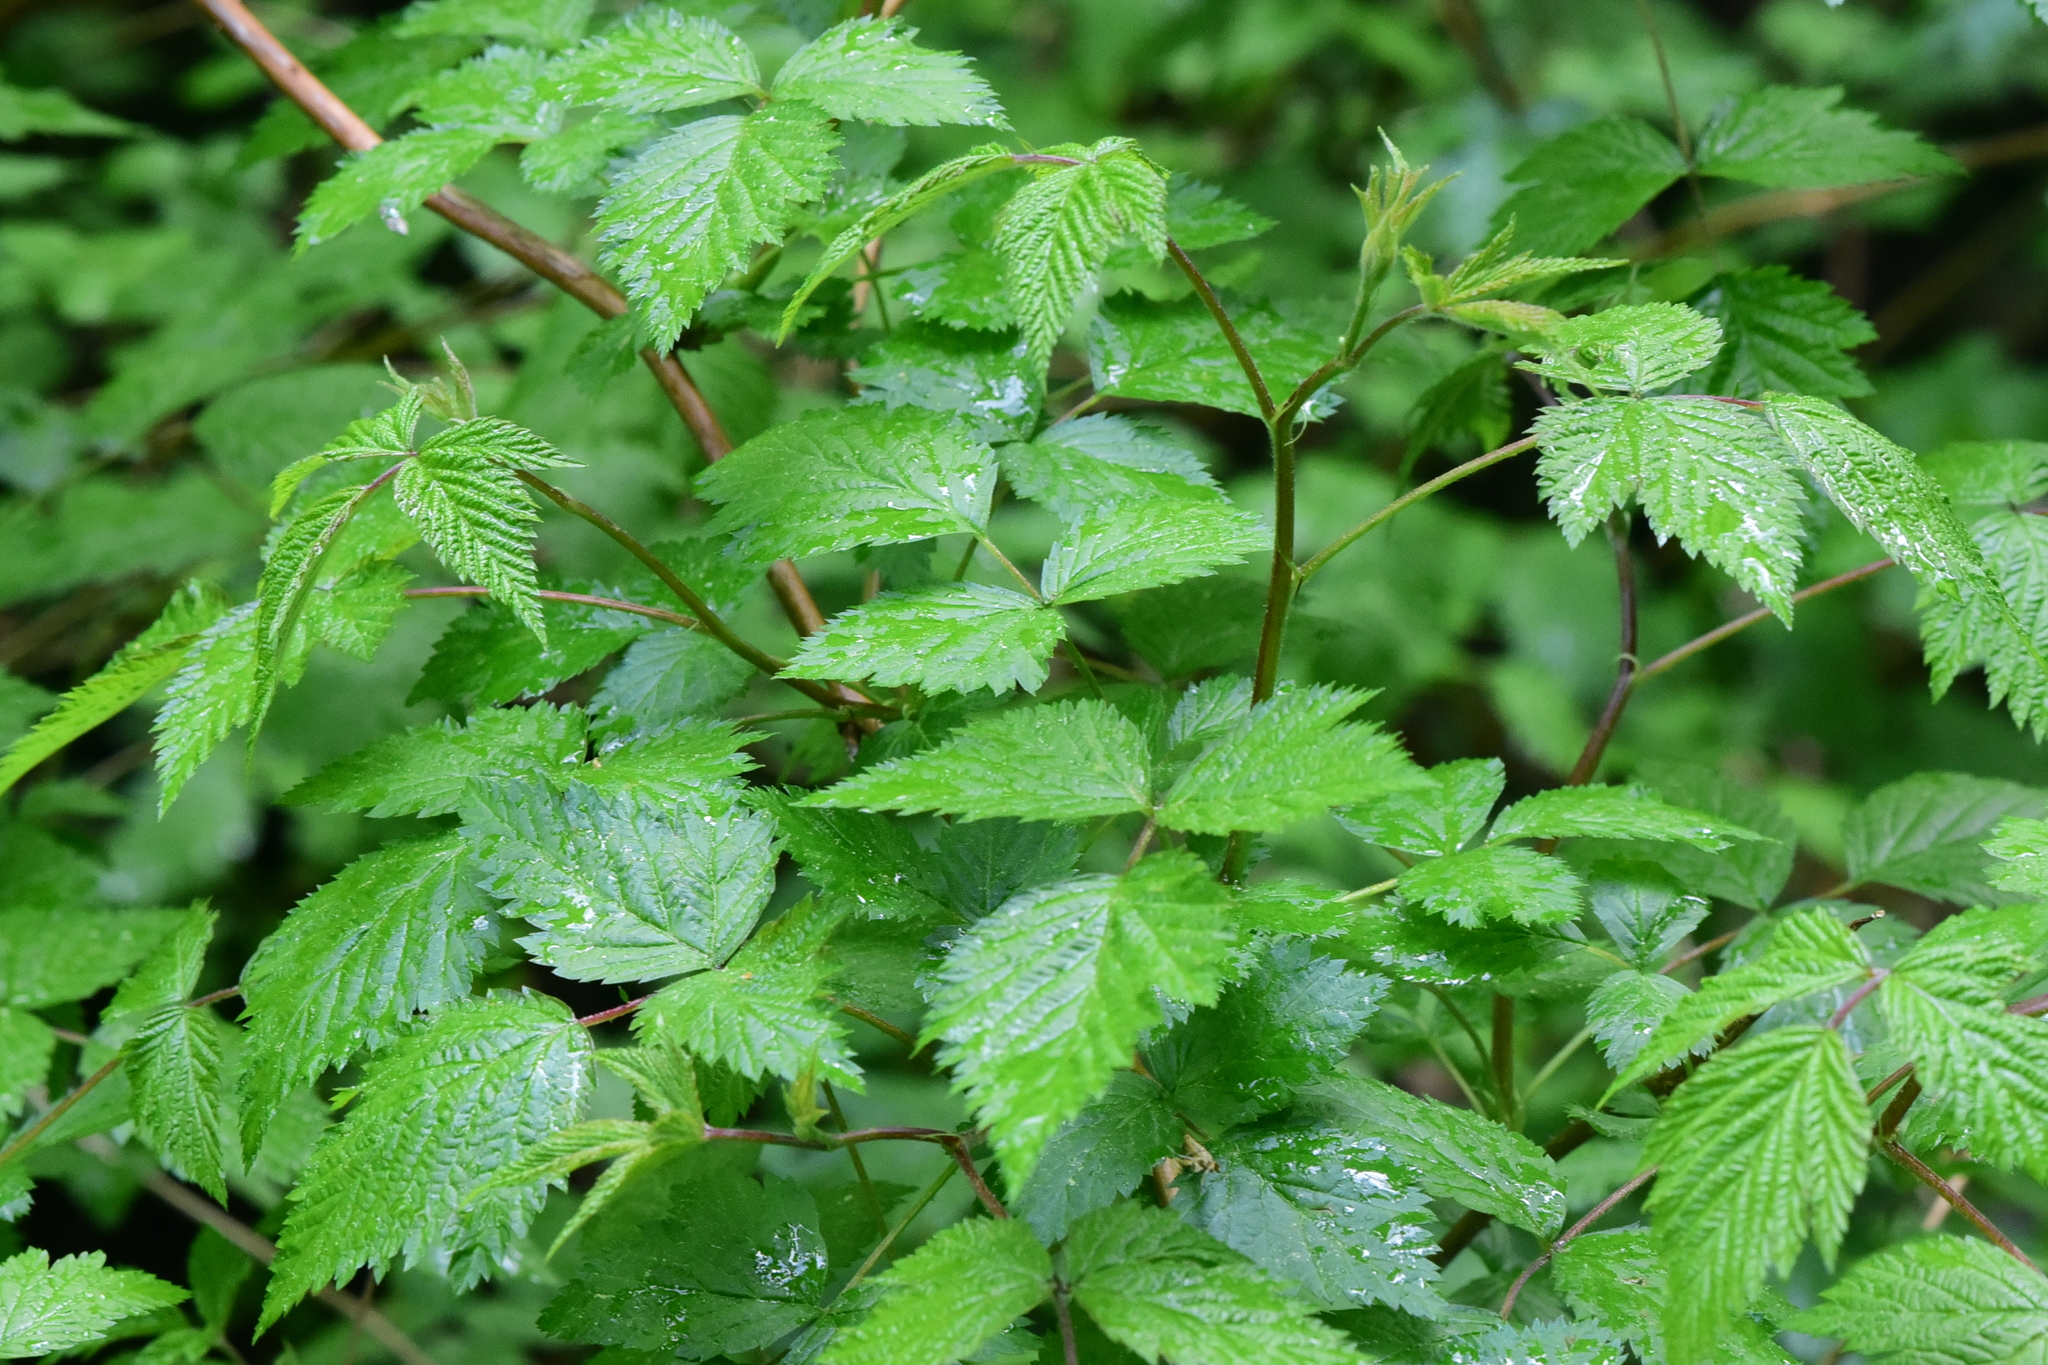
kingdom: Plantae
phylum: Tracheophyta
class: Magnoliopsida
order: Rosales
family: Rosaceae
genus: Rubus
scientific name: Rubus spectabilis
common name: Salmonberry
